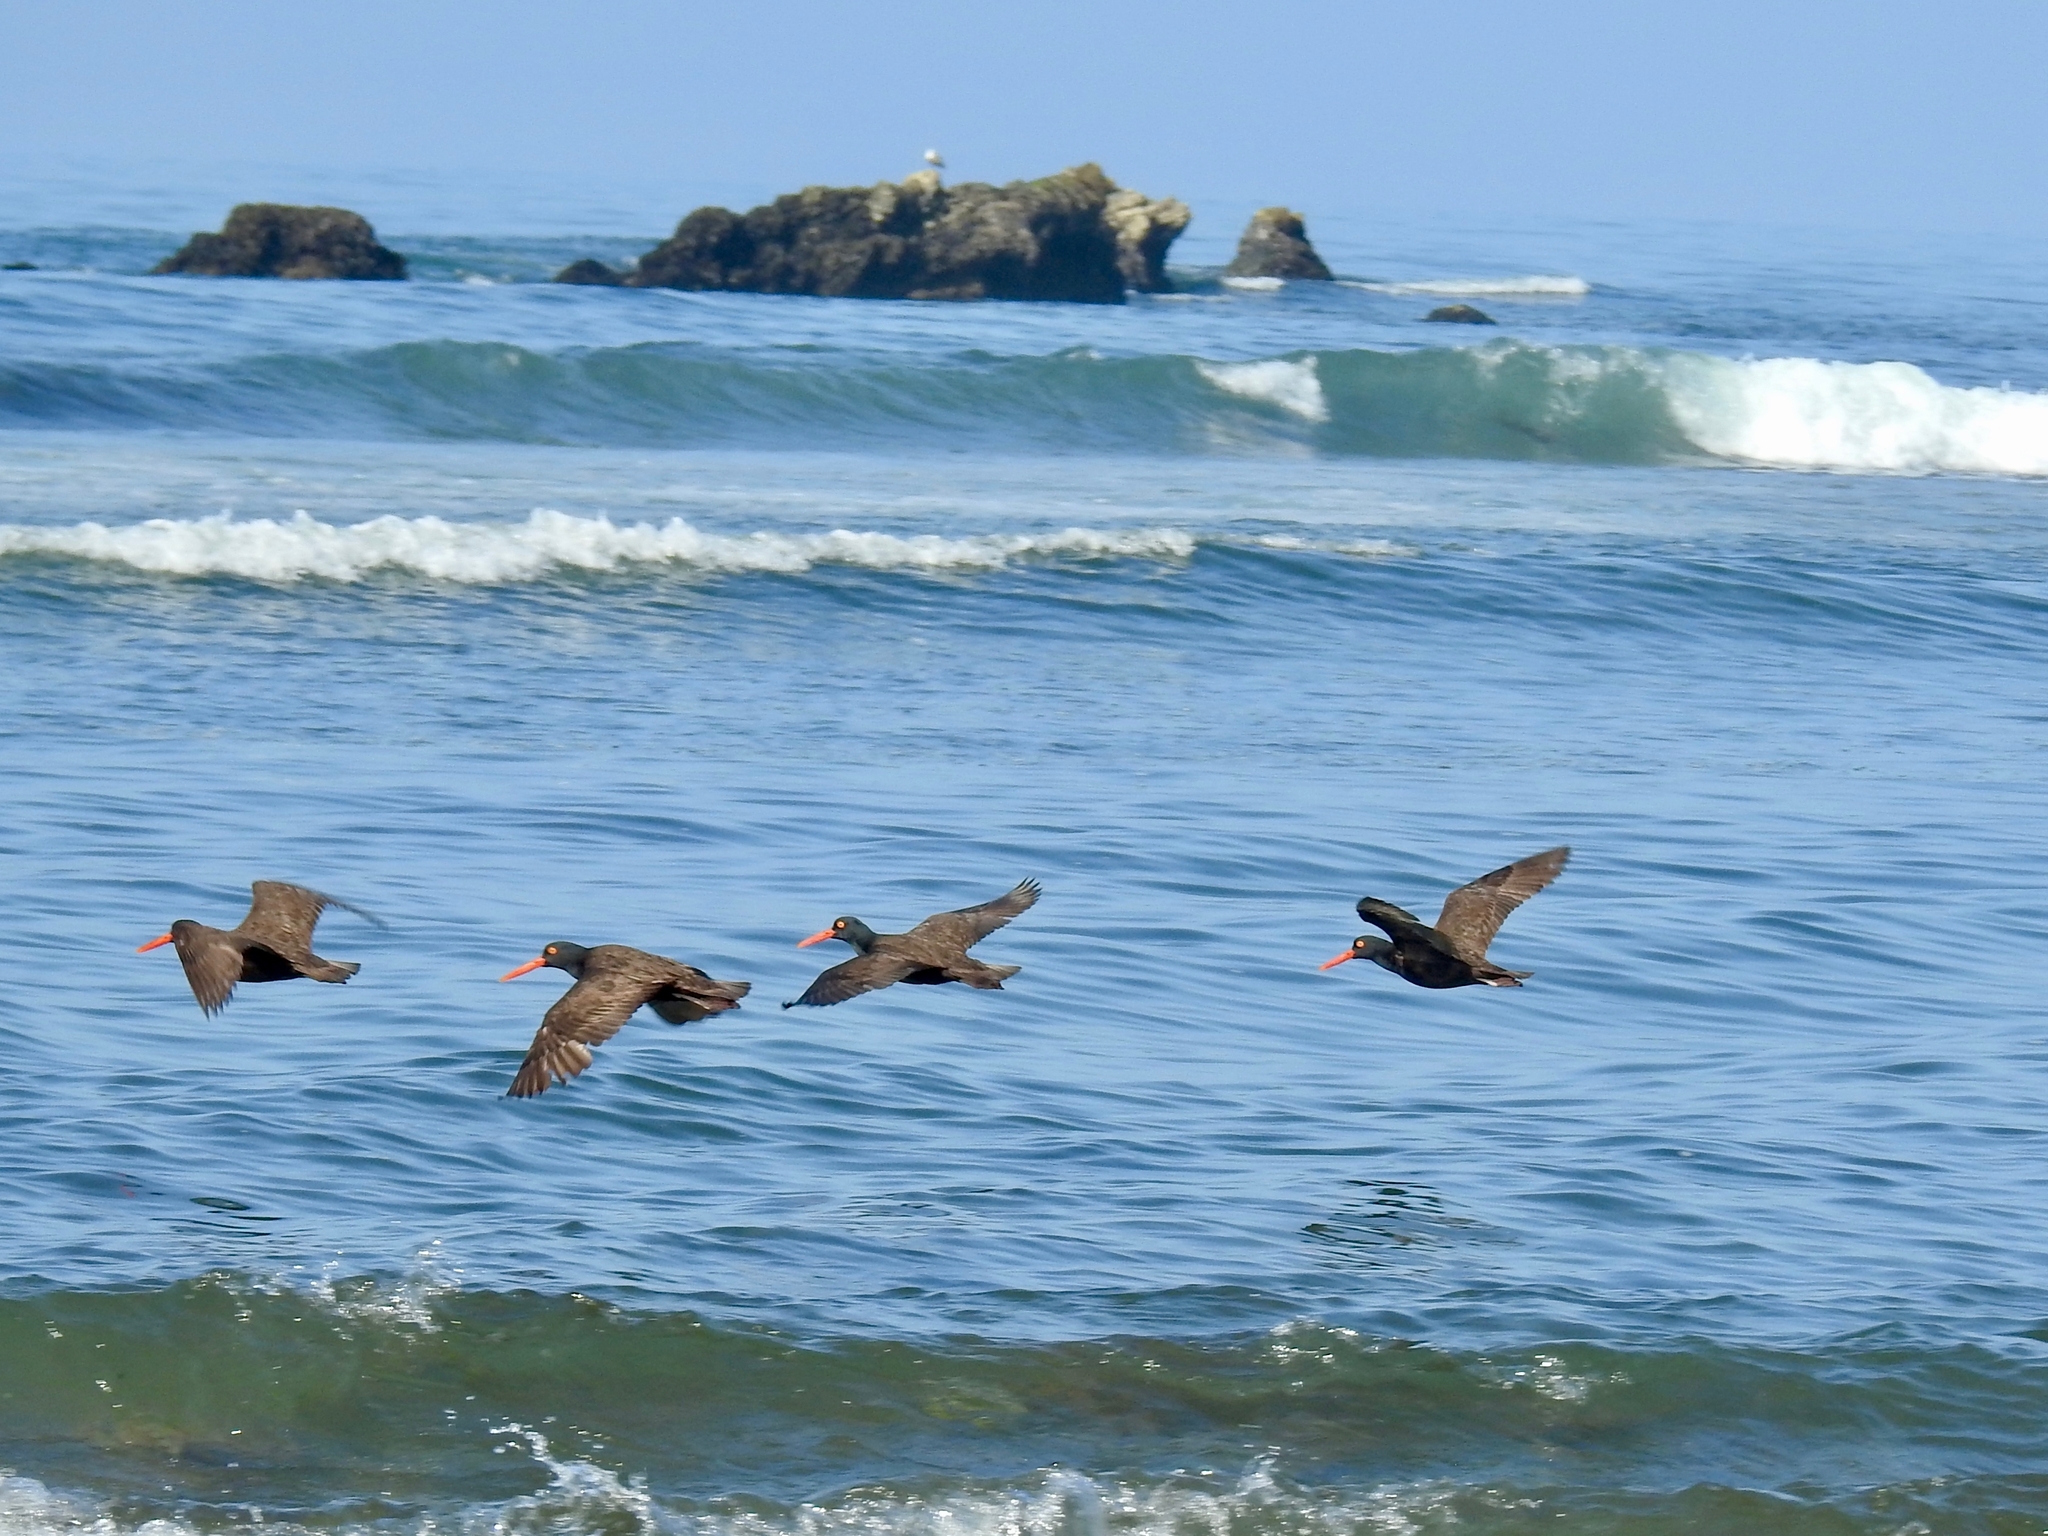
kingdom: Animalia
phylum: Chordata
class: Aves
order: Charadriiformes
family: Haematopodidae
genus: Haematopus
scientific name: Haematopus bachmani
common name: Black oystercatcher
